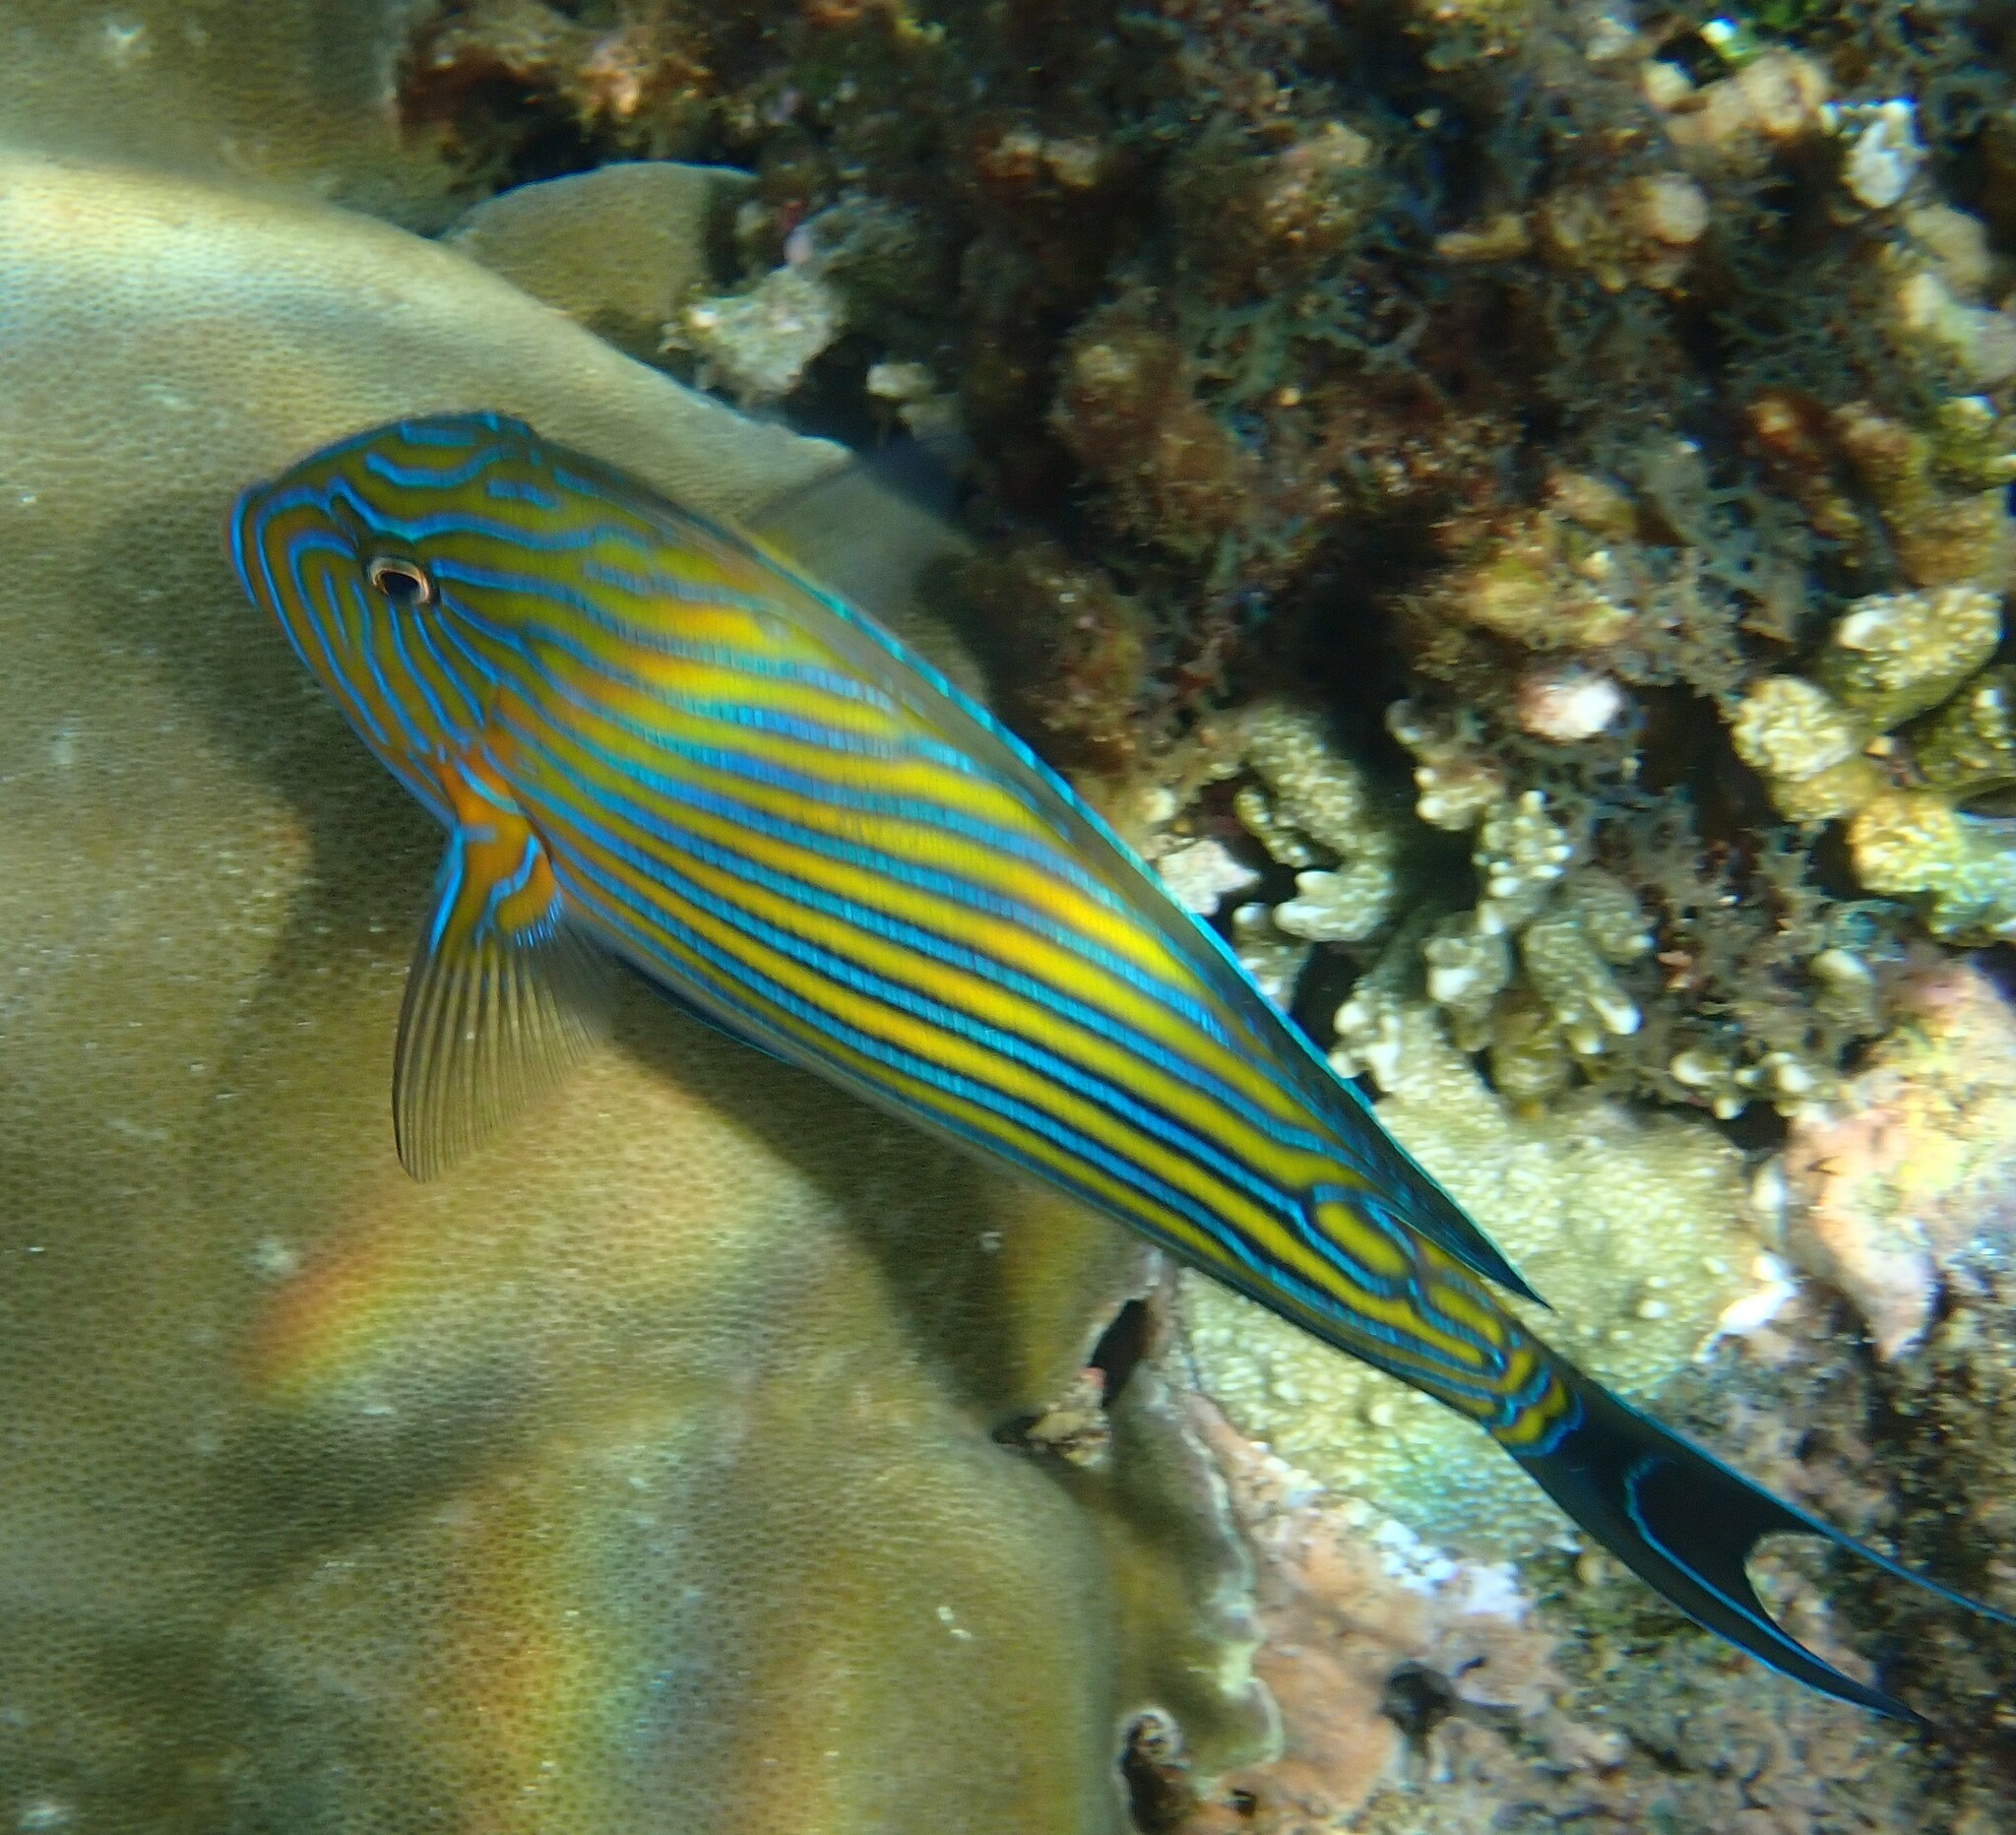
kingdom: Animalia
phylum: Chordata
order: Perciformes
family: Acanthuridae
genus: Acanthurus
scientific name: Acanthurus lineatus
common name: Striped surgeonfish
